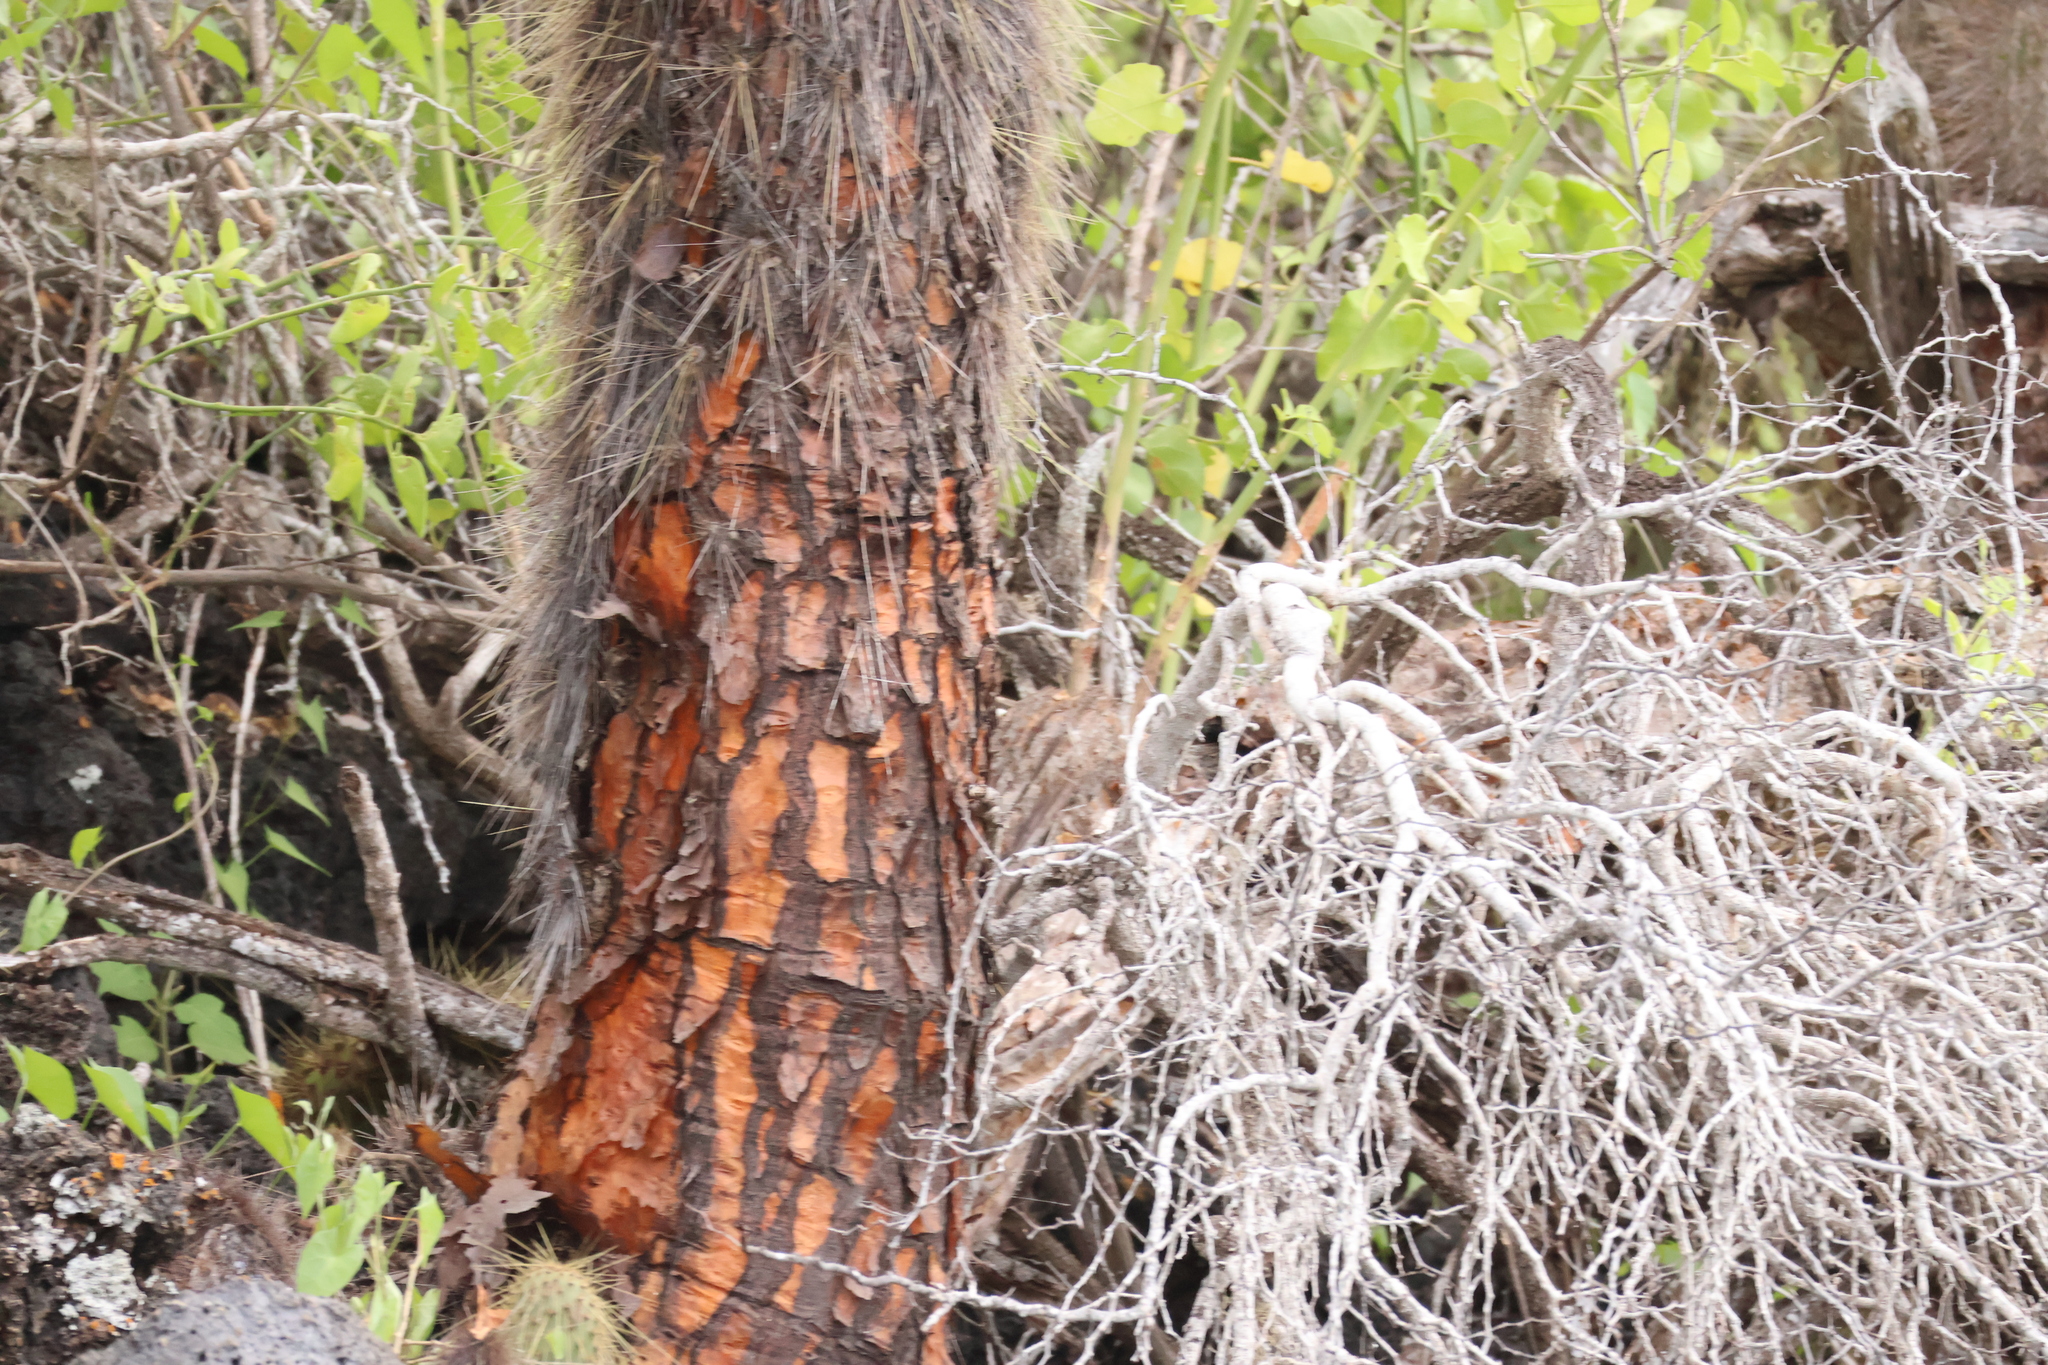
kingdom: Plantae
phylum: Tracheophyta
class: Magnoliopsida
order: Caryophyllales
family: Cactaceae
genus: Opuntia
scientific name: Opuntia galapageia
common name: Galápagos prickly pear
